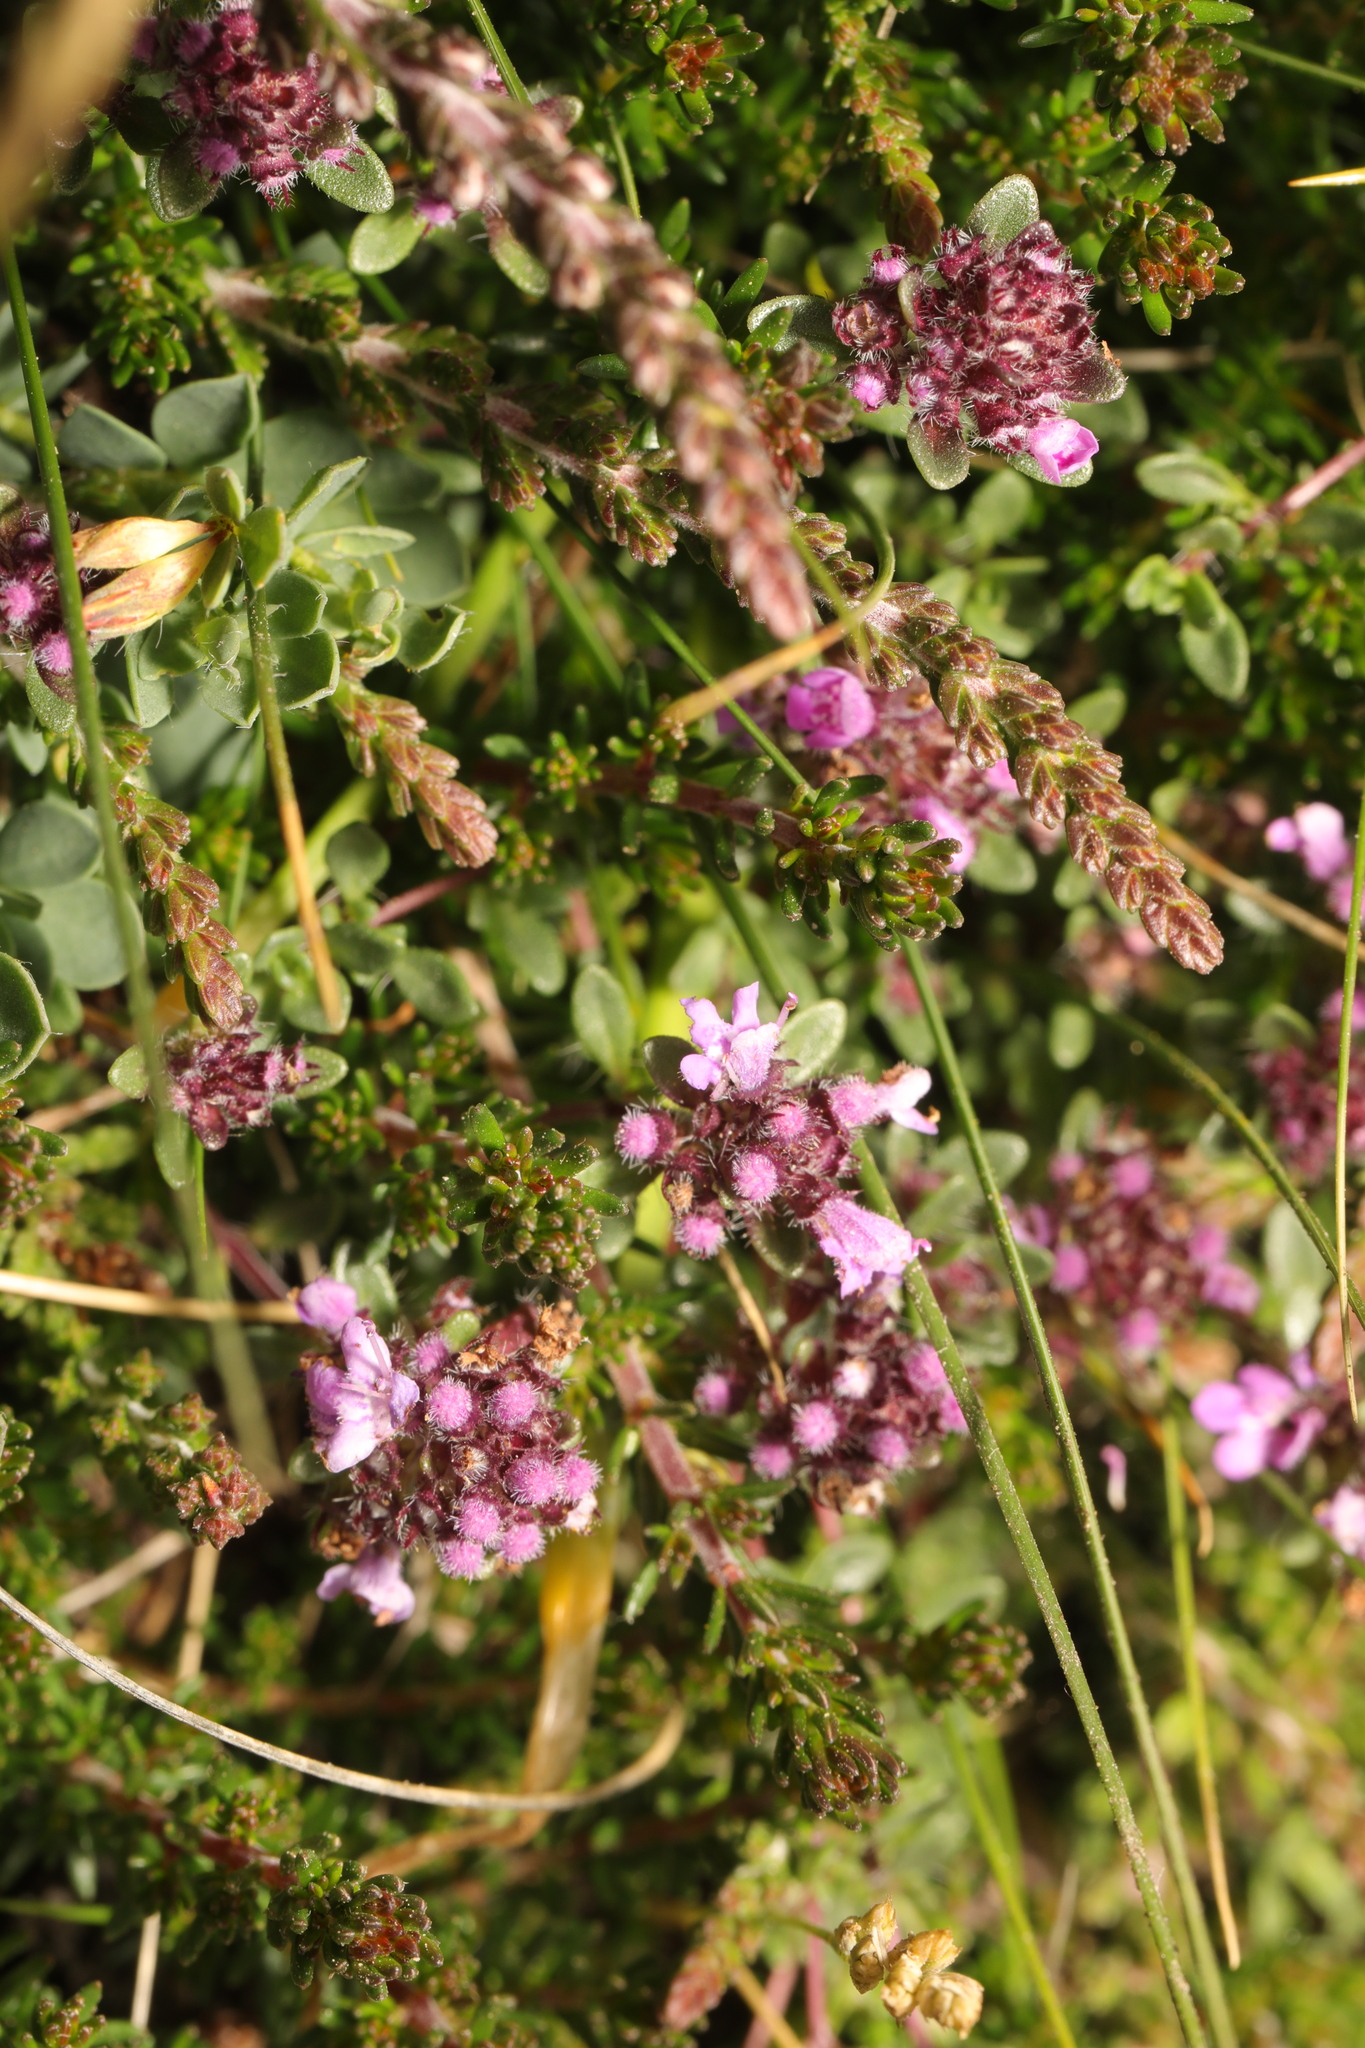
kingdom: Plantae
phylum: Tracheophyta
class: Magnoliopsida
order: Lamiales
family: Lamiaceae
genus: Thymus
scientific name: Thymus praecox
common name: Wild thyme
